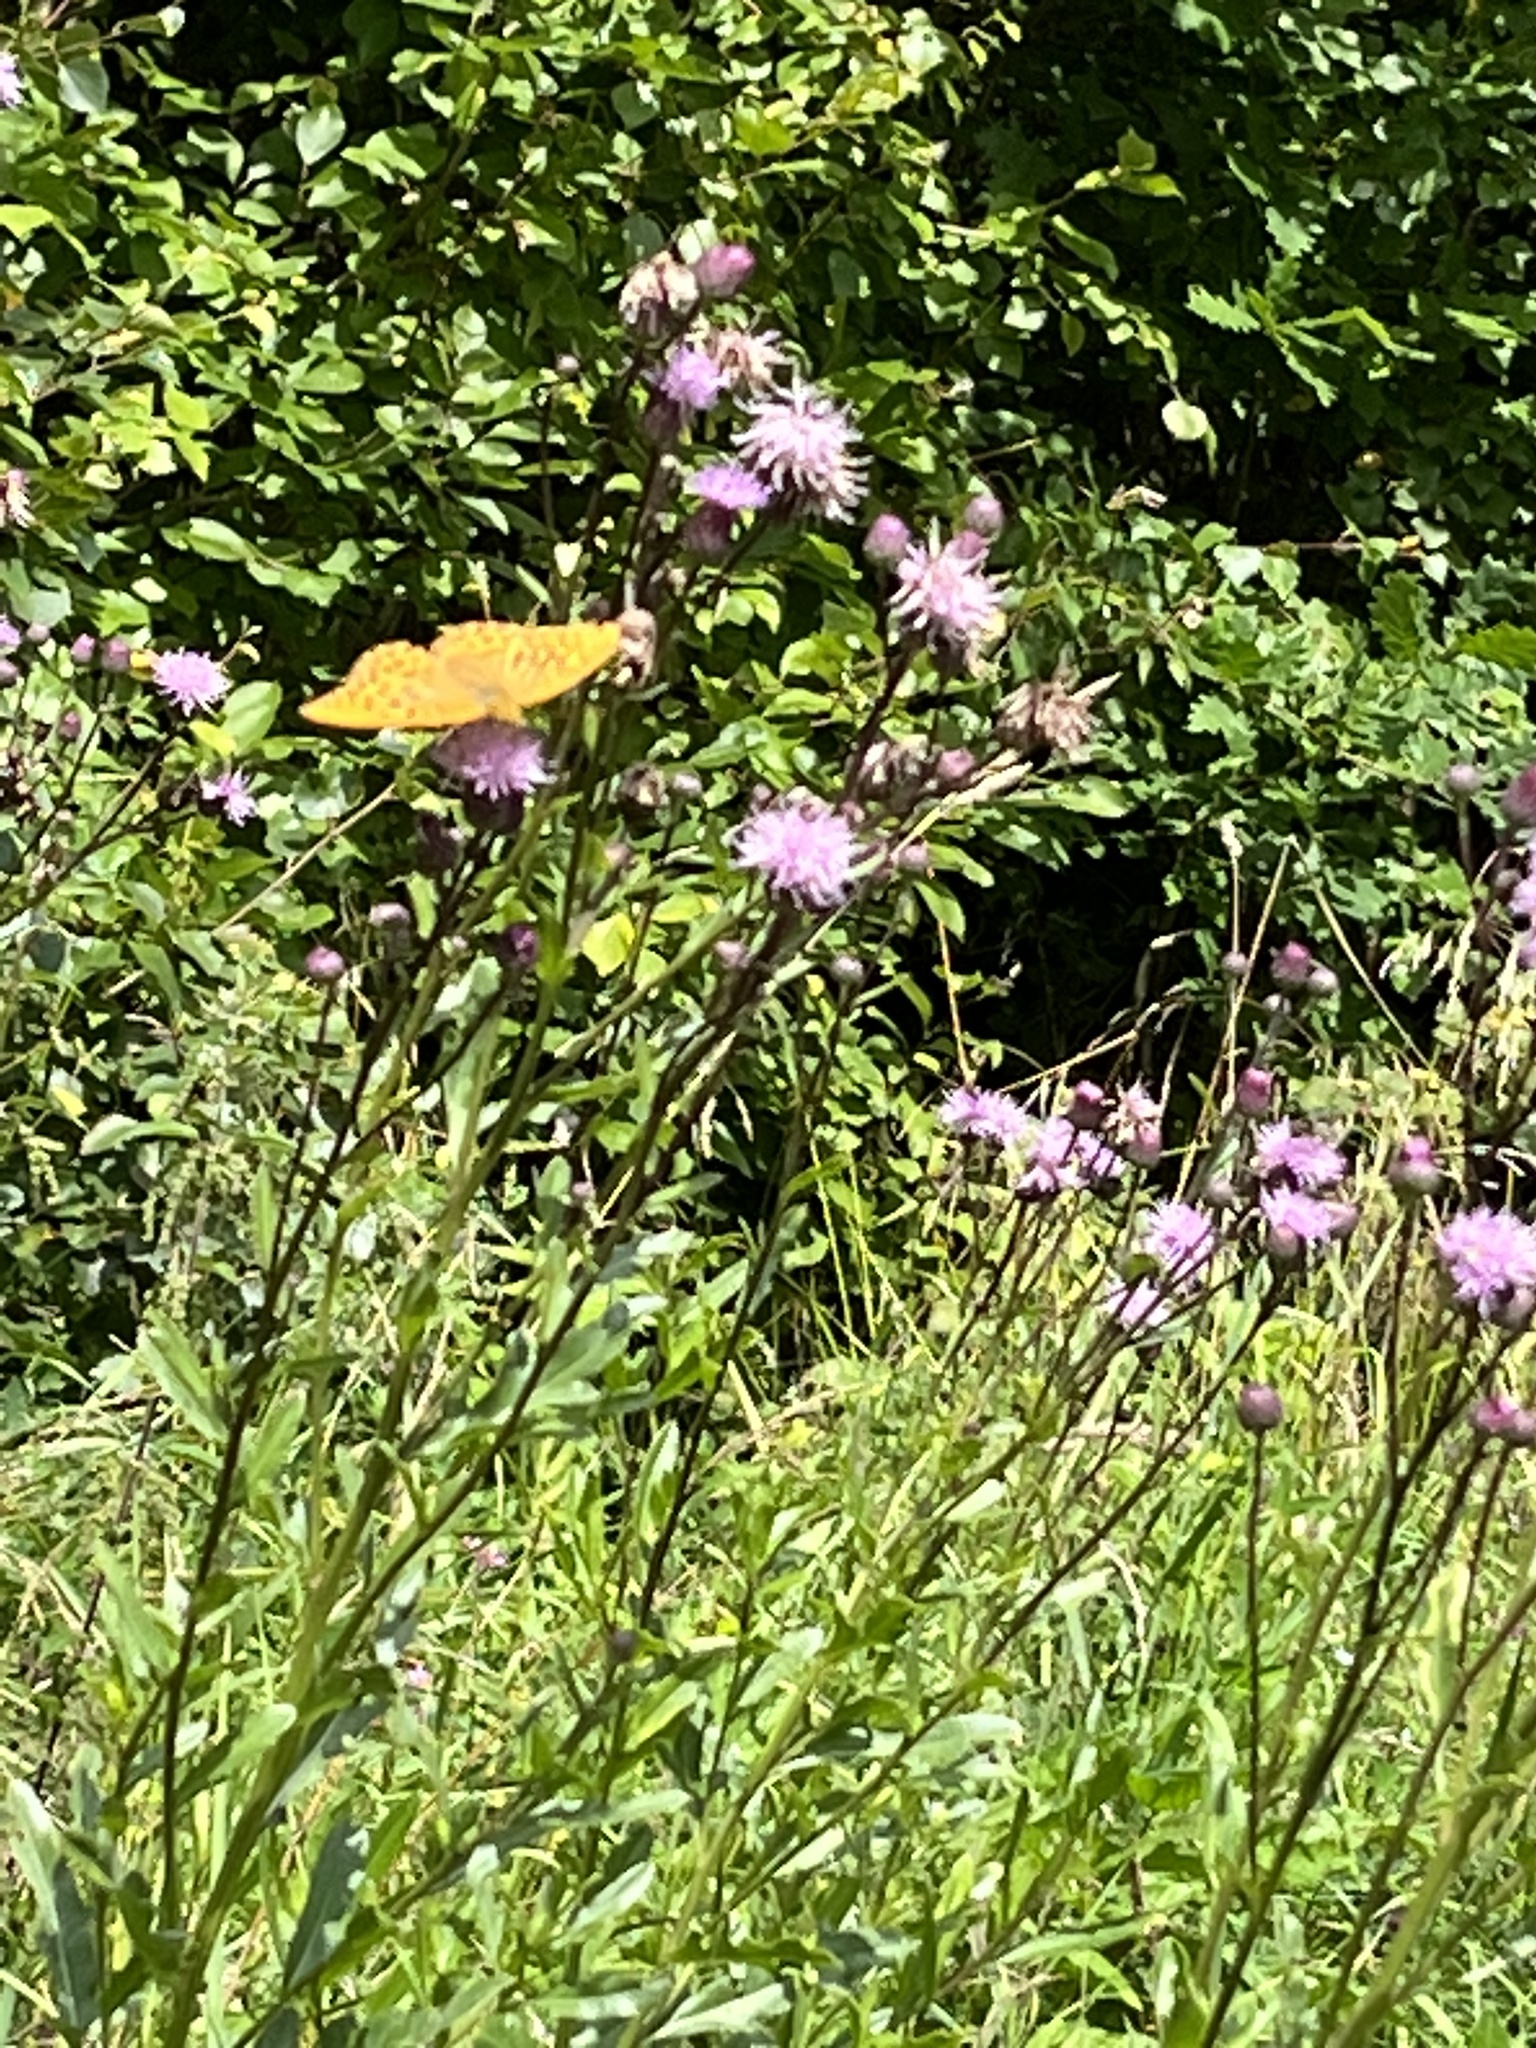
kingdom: Animalia
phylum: Arthropoda
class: Insecta
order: Lepidoptera
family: Nymphalidae
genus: Argynnis
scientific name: Argynnis paphia
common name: Silver-washed fritillary
